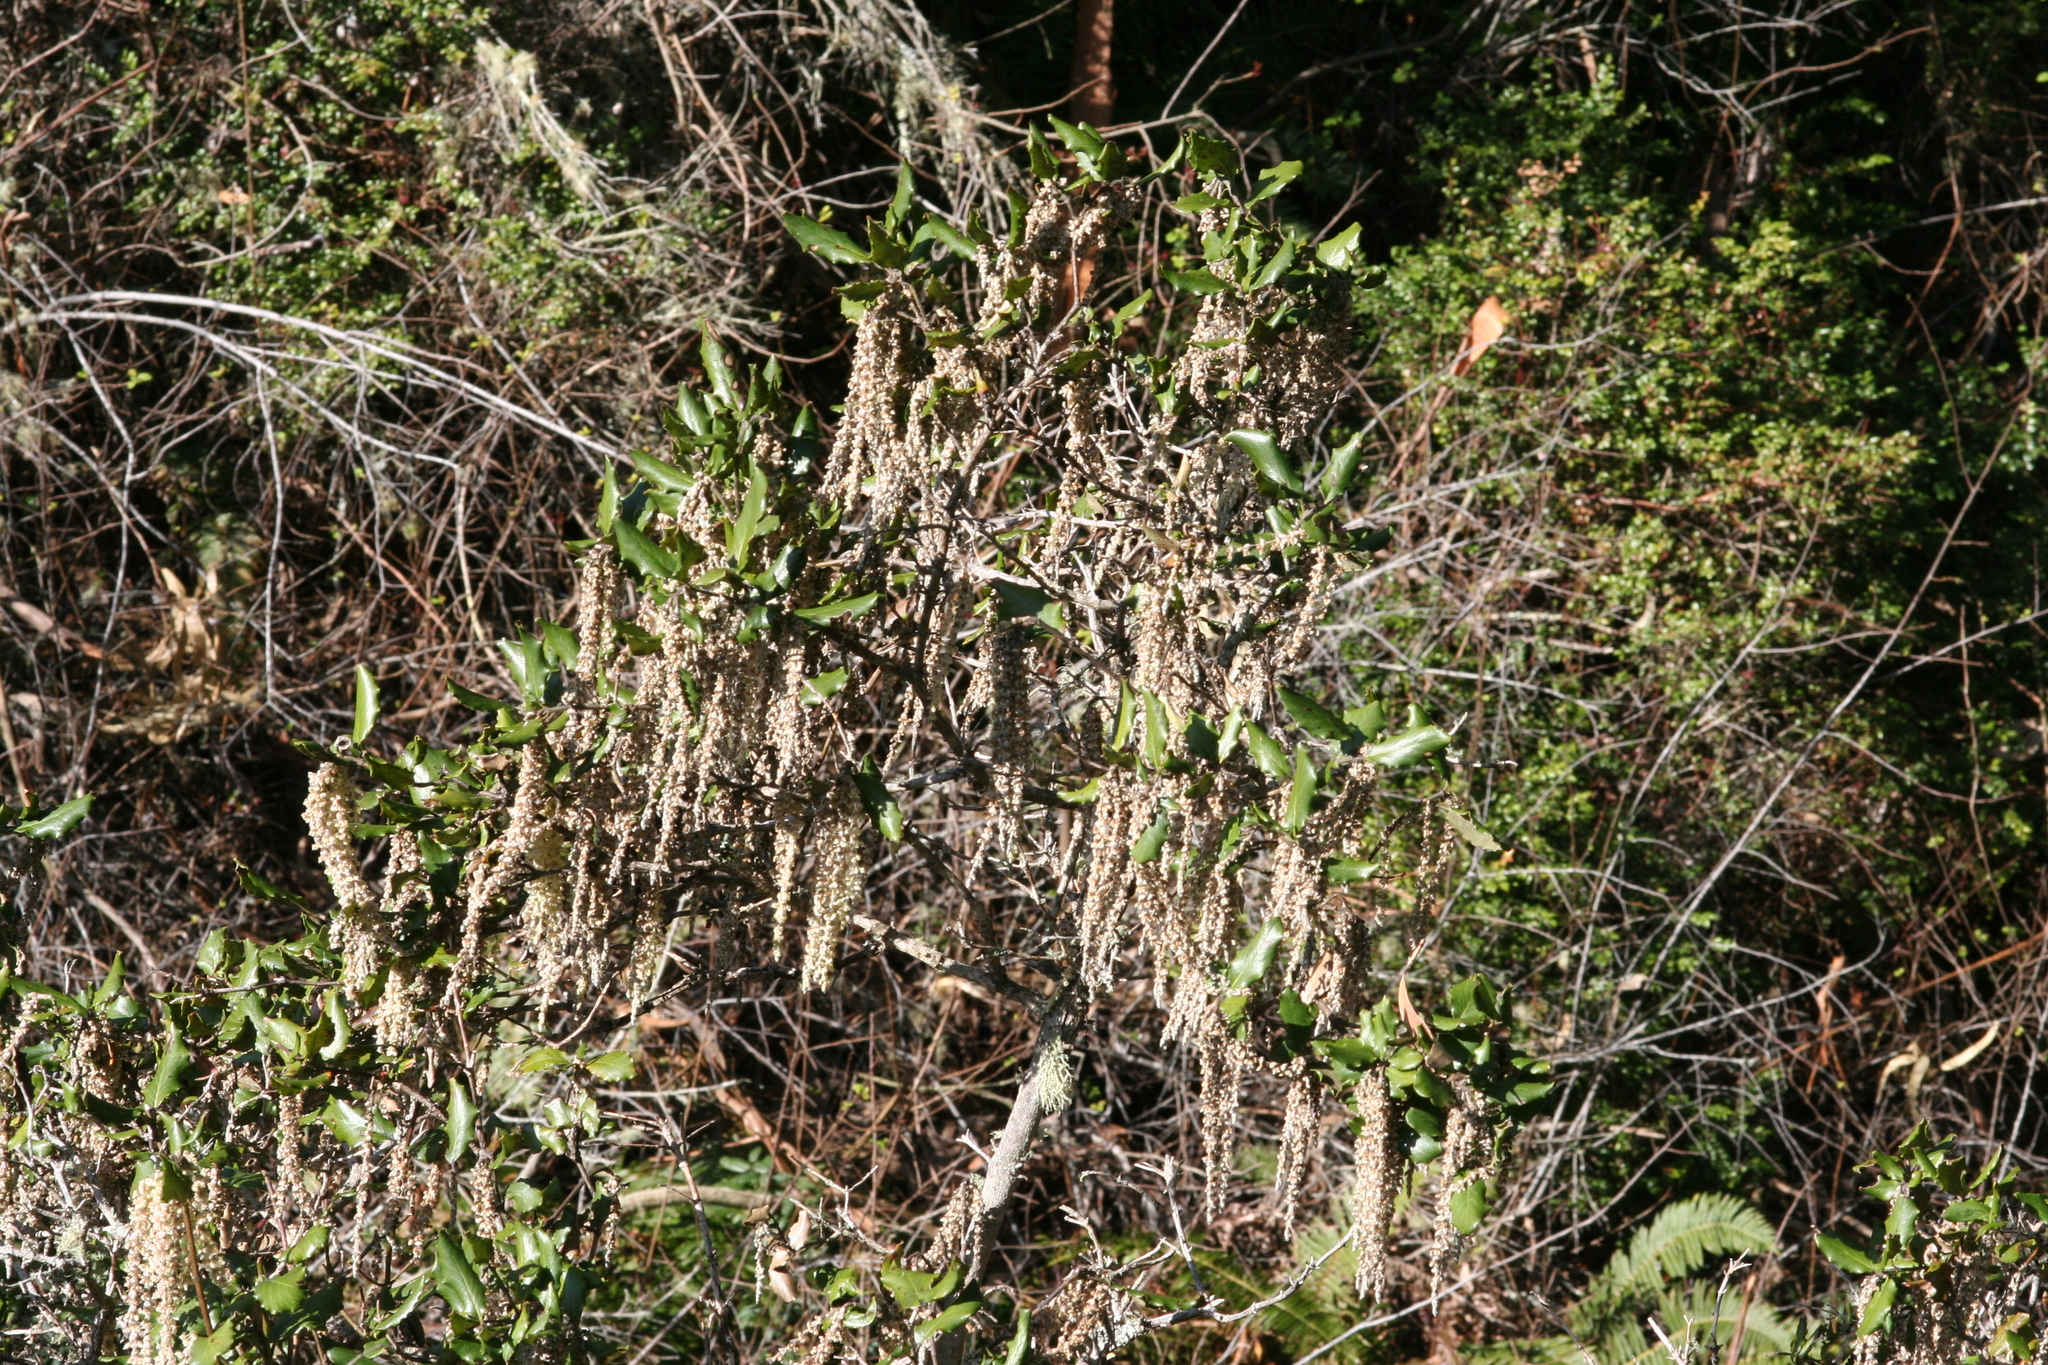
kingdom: Plantae
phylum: Tracheophyta
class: Magnoliopsida
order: Garryales
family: Garryaceae
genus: Garrya
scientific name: Garrya elliptica
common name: Silk-tassel
